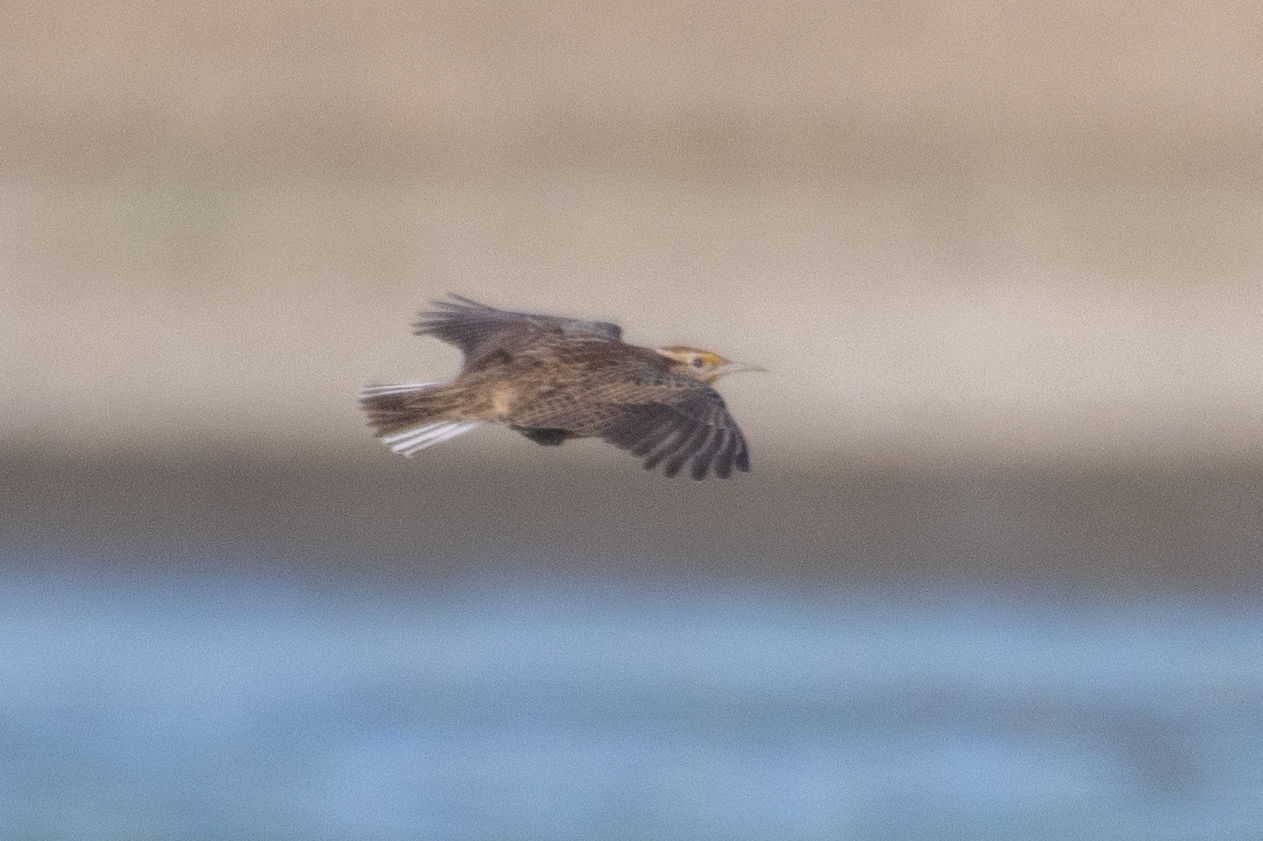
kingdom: Animalia
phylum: Chordata
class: Aves
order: Passeriformes
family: Icteridae
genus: Sturnella
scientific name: Sturnella neglecta
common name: Western meadowlark
